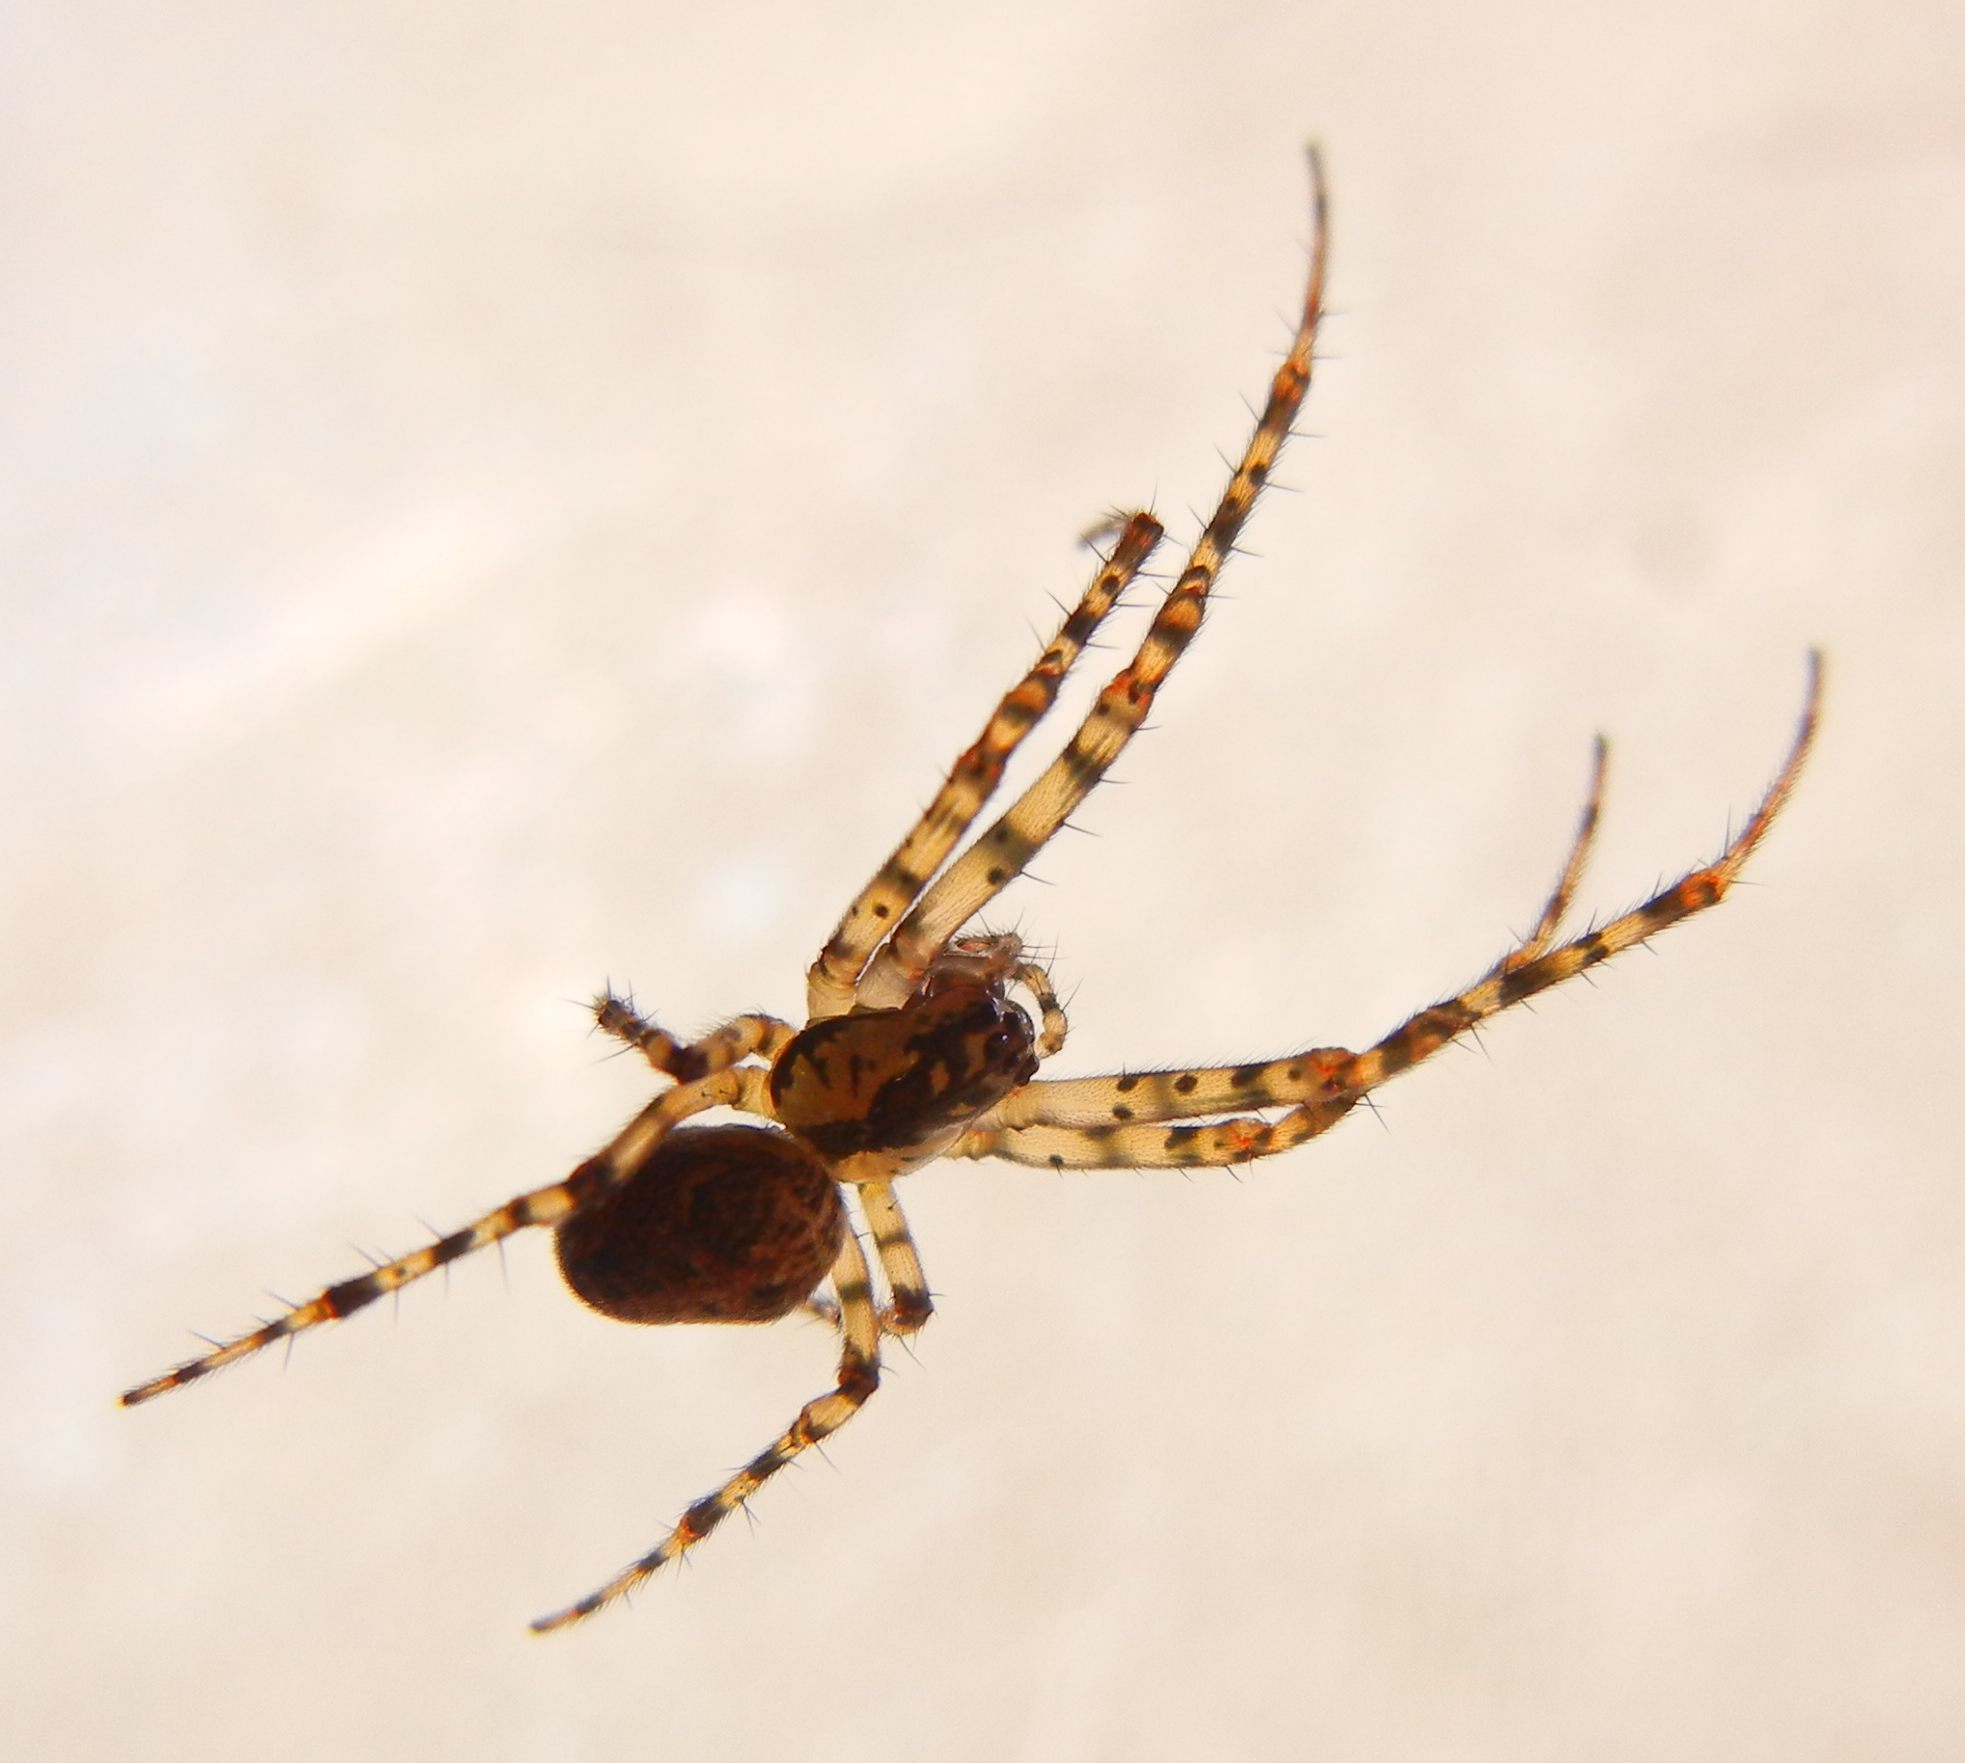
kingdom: Animalia
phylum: Arthropoda
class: Arachnida
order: Araneae
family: Tetragnathidae
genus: Metellina
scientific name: Metellina merianae
